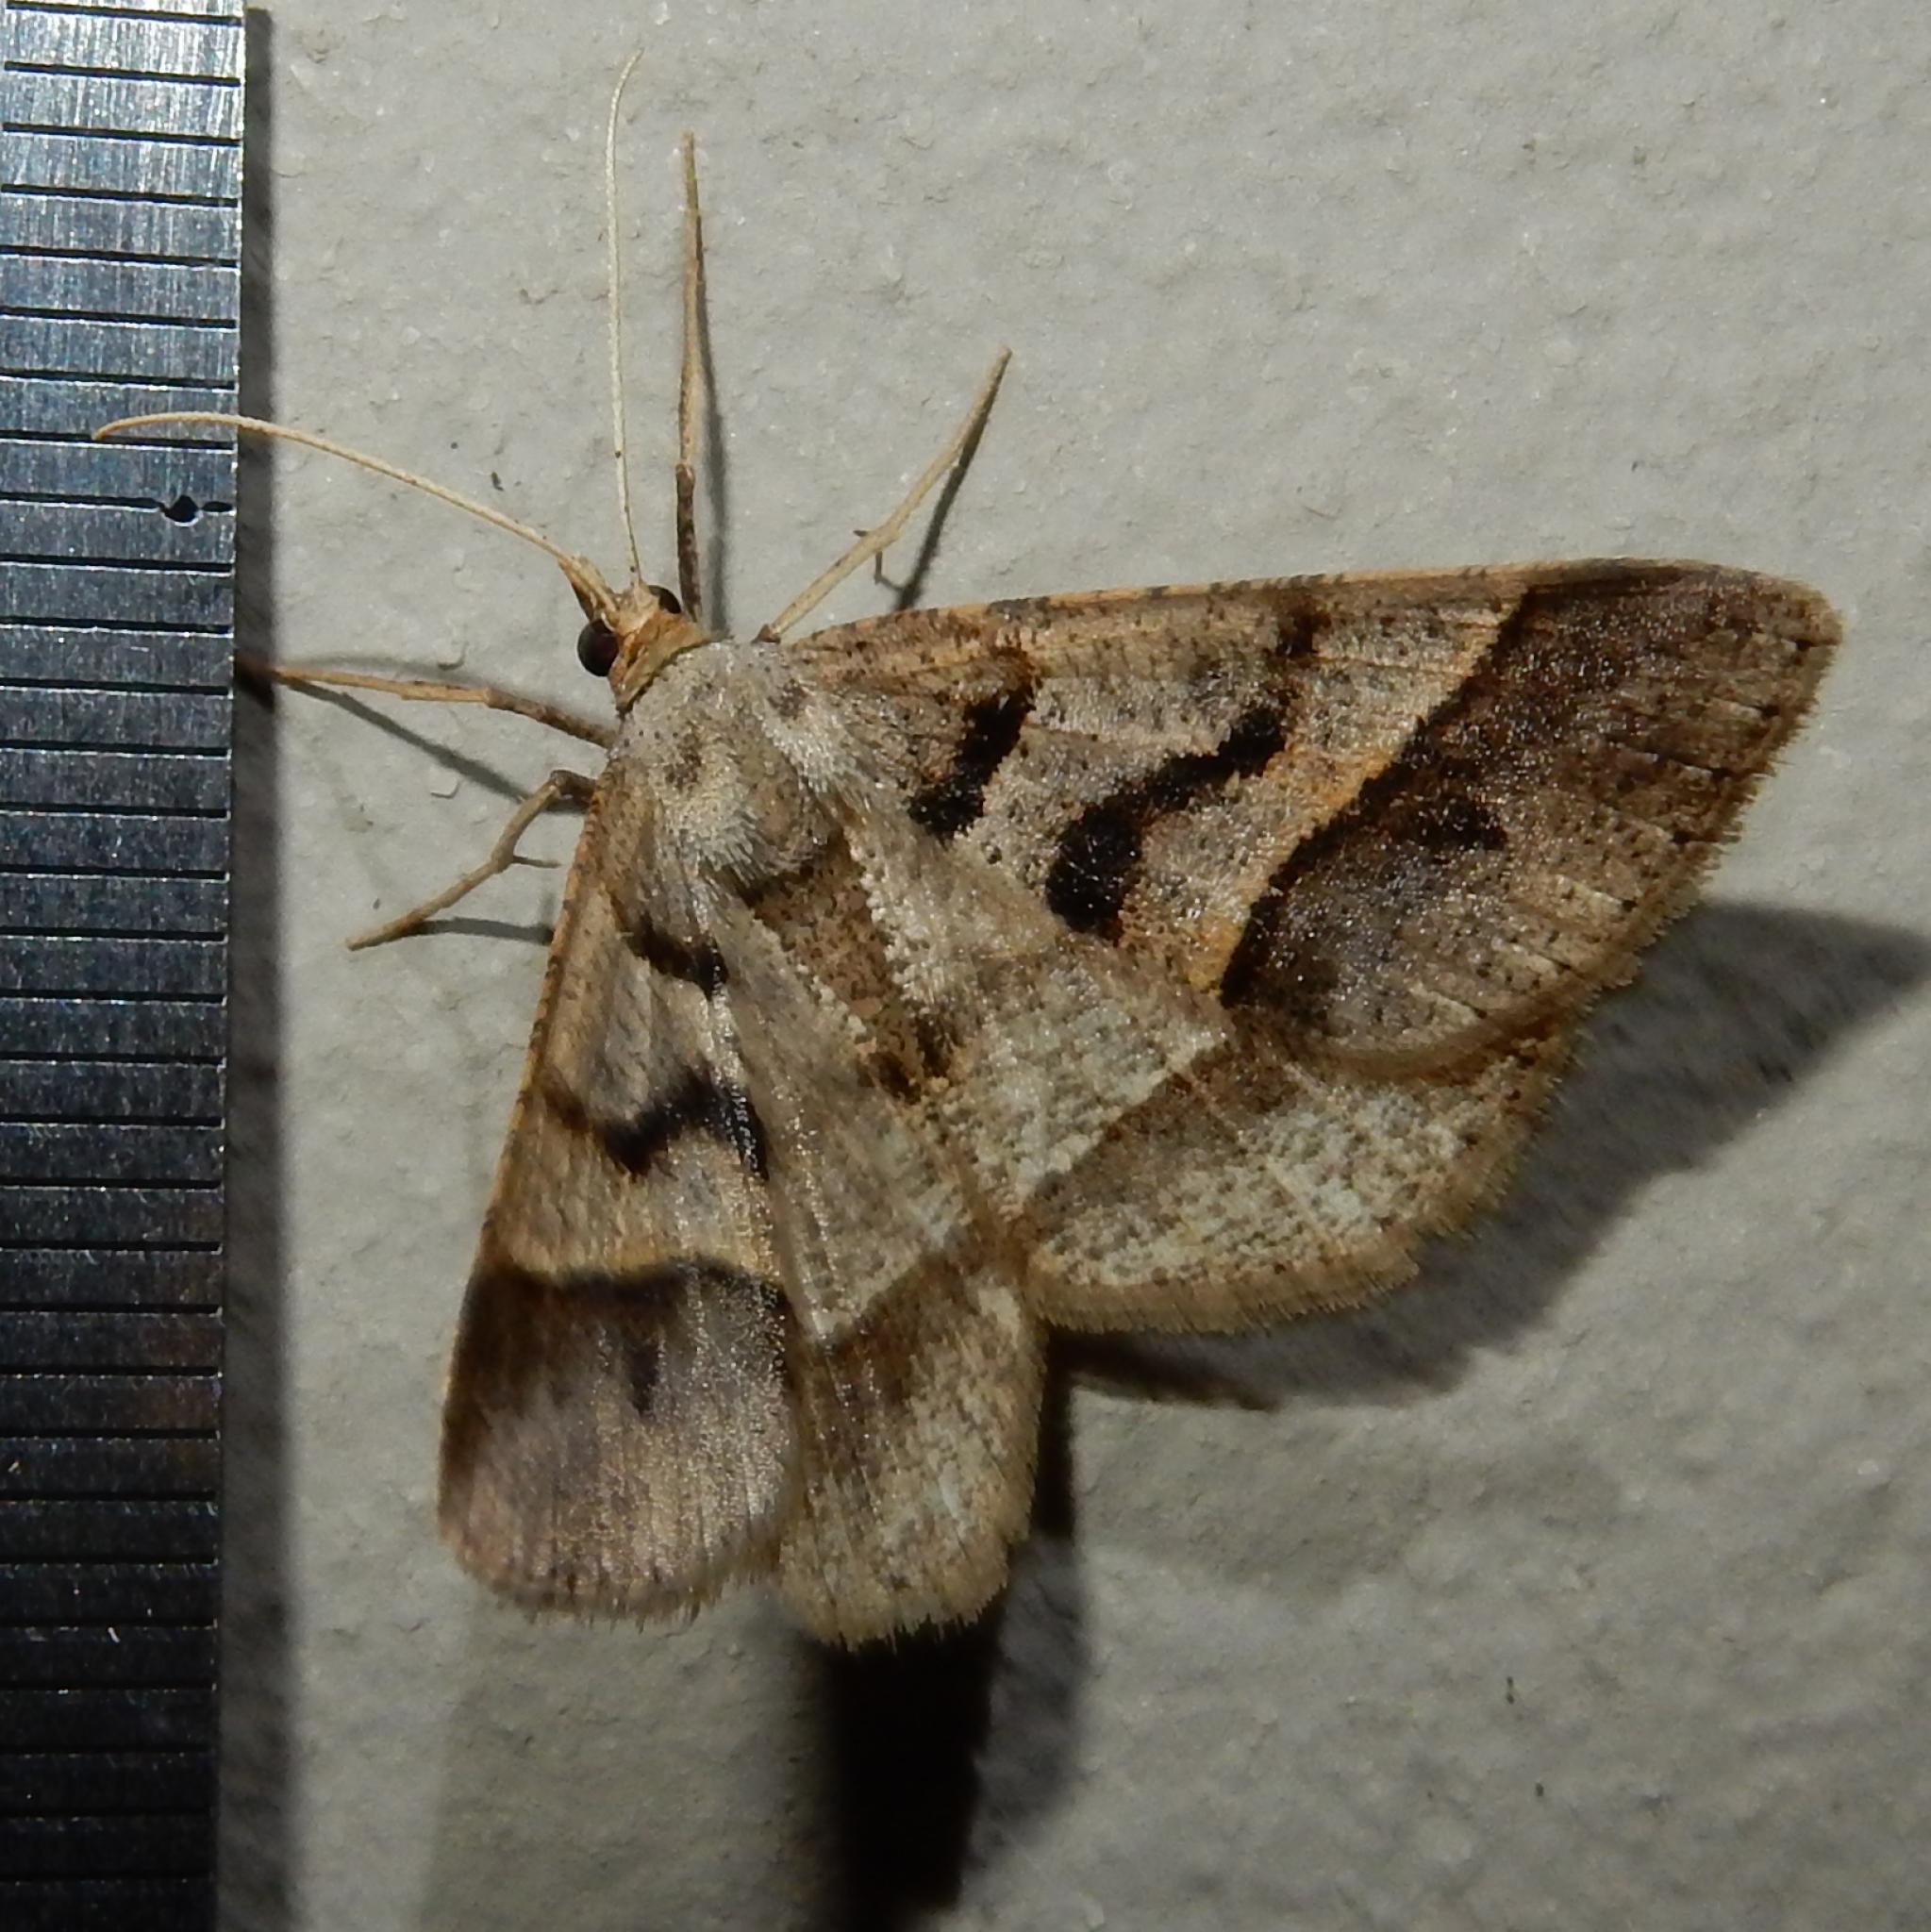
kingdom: Animalia
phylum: Arthropoda
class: Insecta
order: Lepidoptera
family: Geometridae
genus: Isturgia
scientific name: Isturgia spissata
